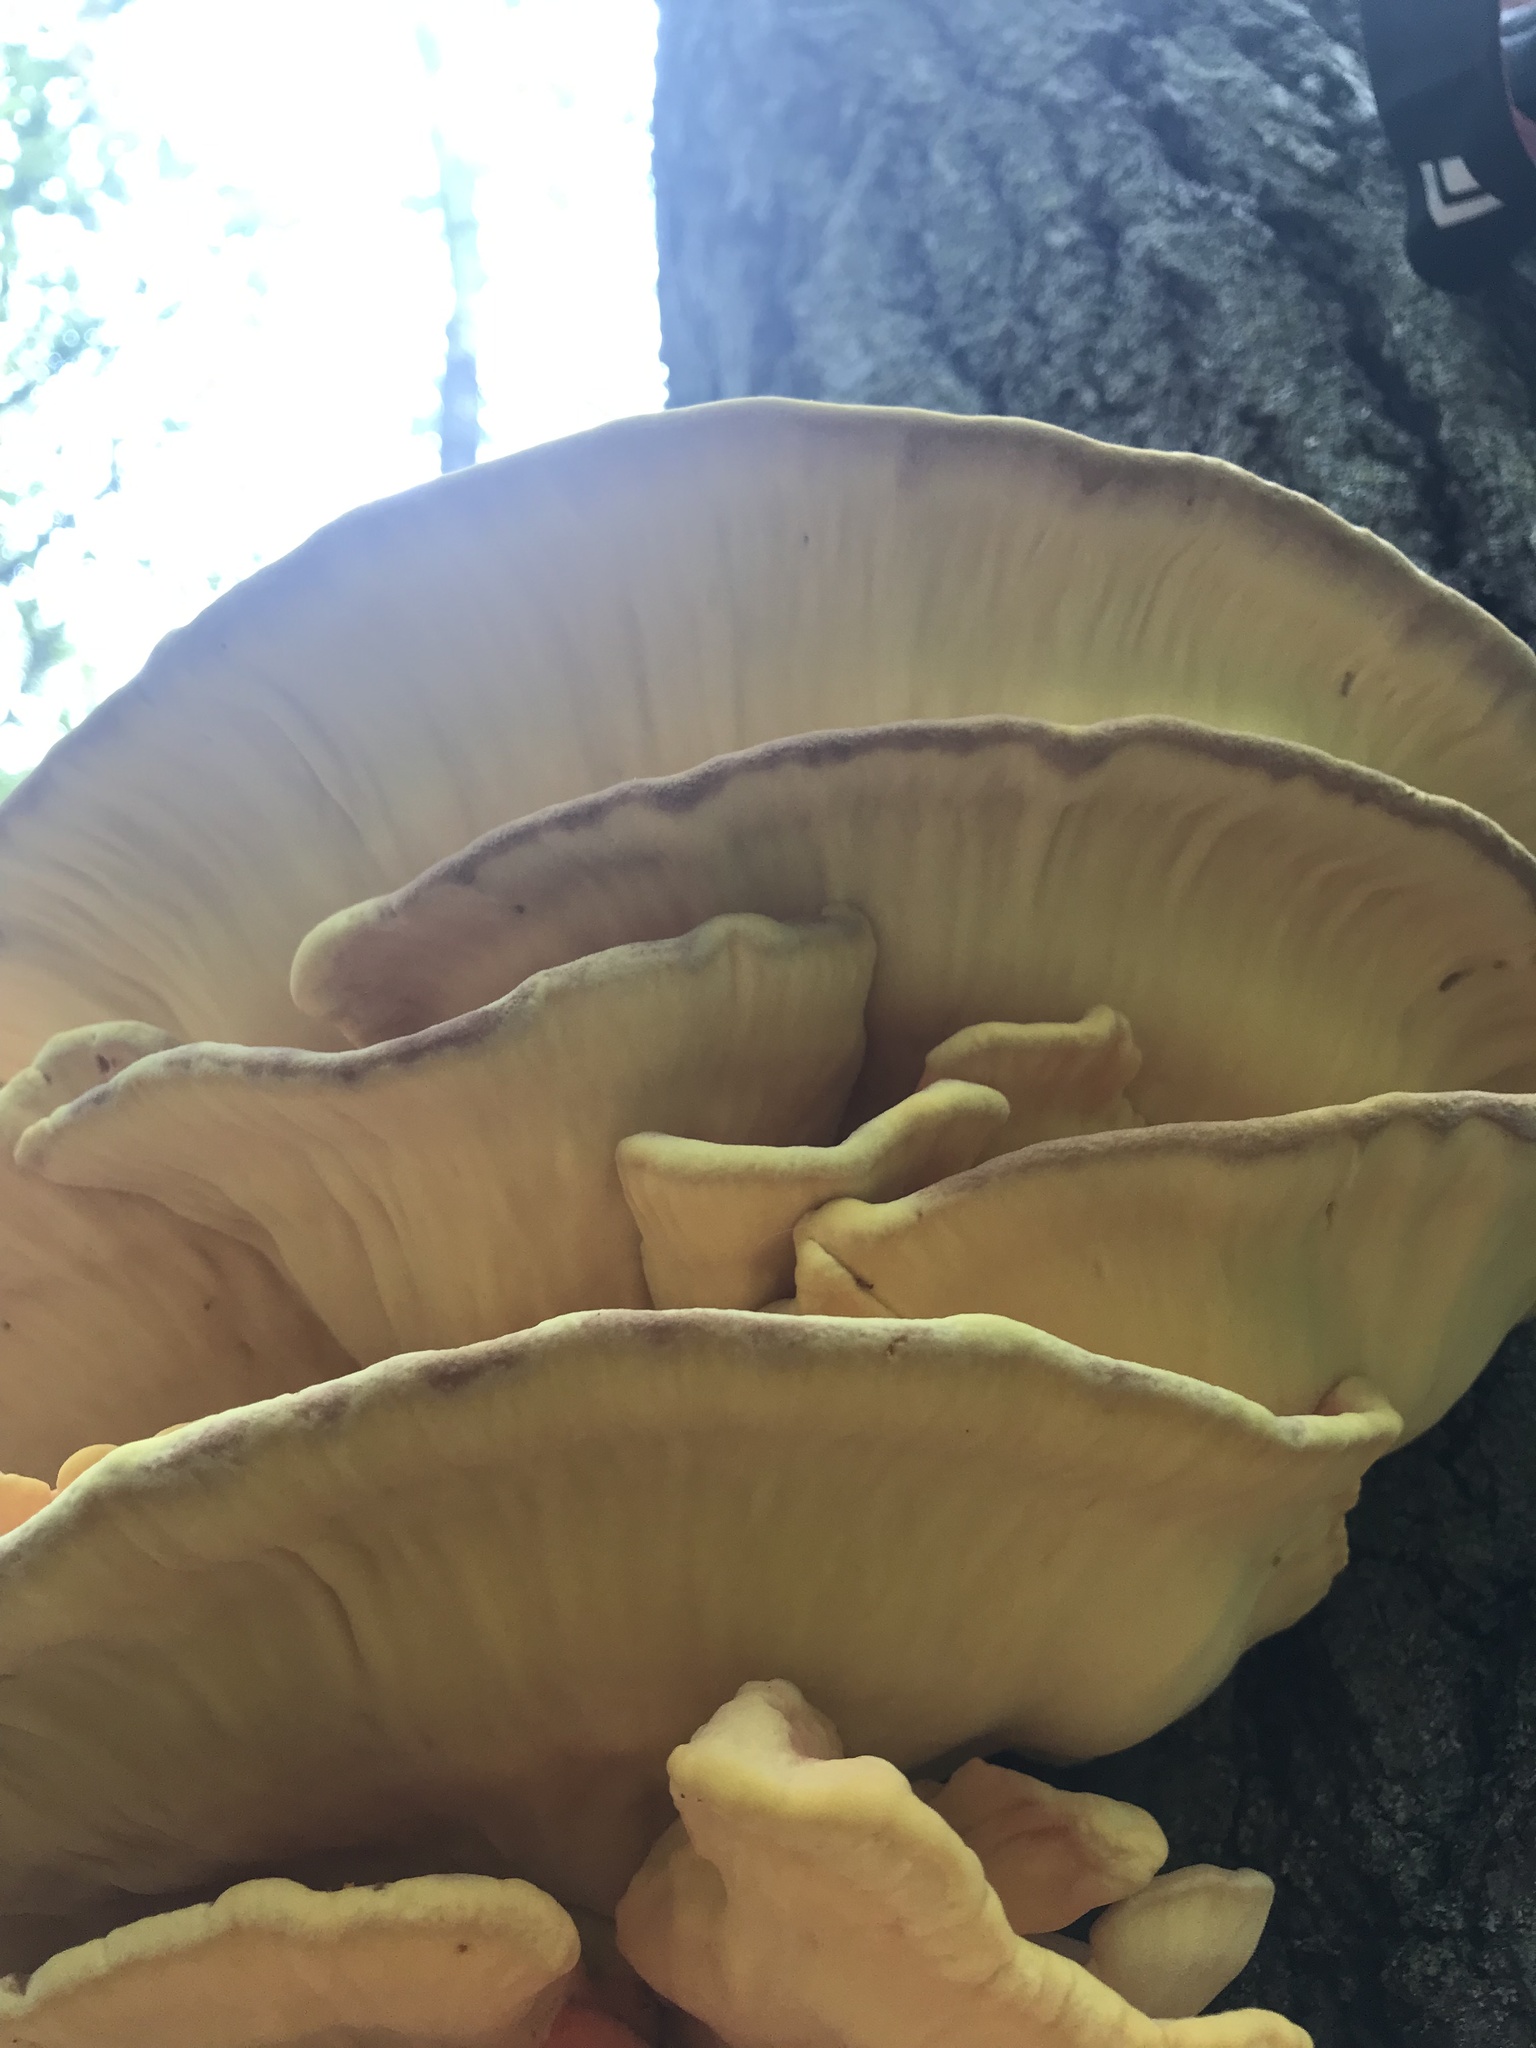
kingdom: Fungi
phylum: Basidiomycota
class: Agaricomycetes
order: Polyporales
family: Laetiporaceae
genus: Laetiporus
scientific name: Laetiporus sulphureus
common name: Chicken of the woods
